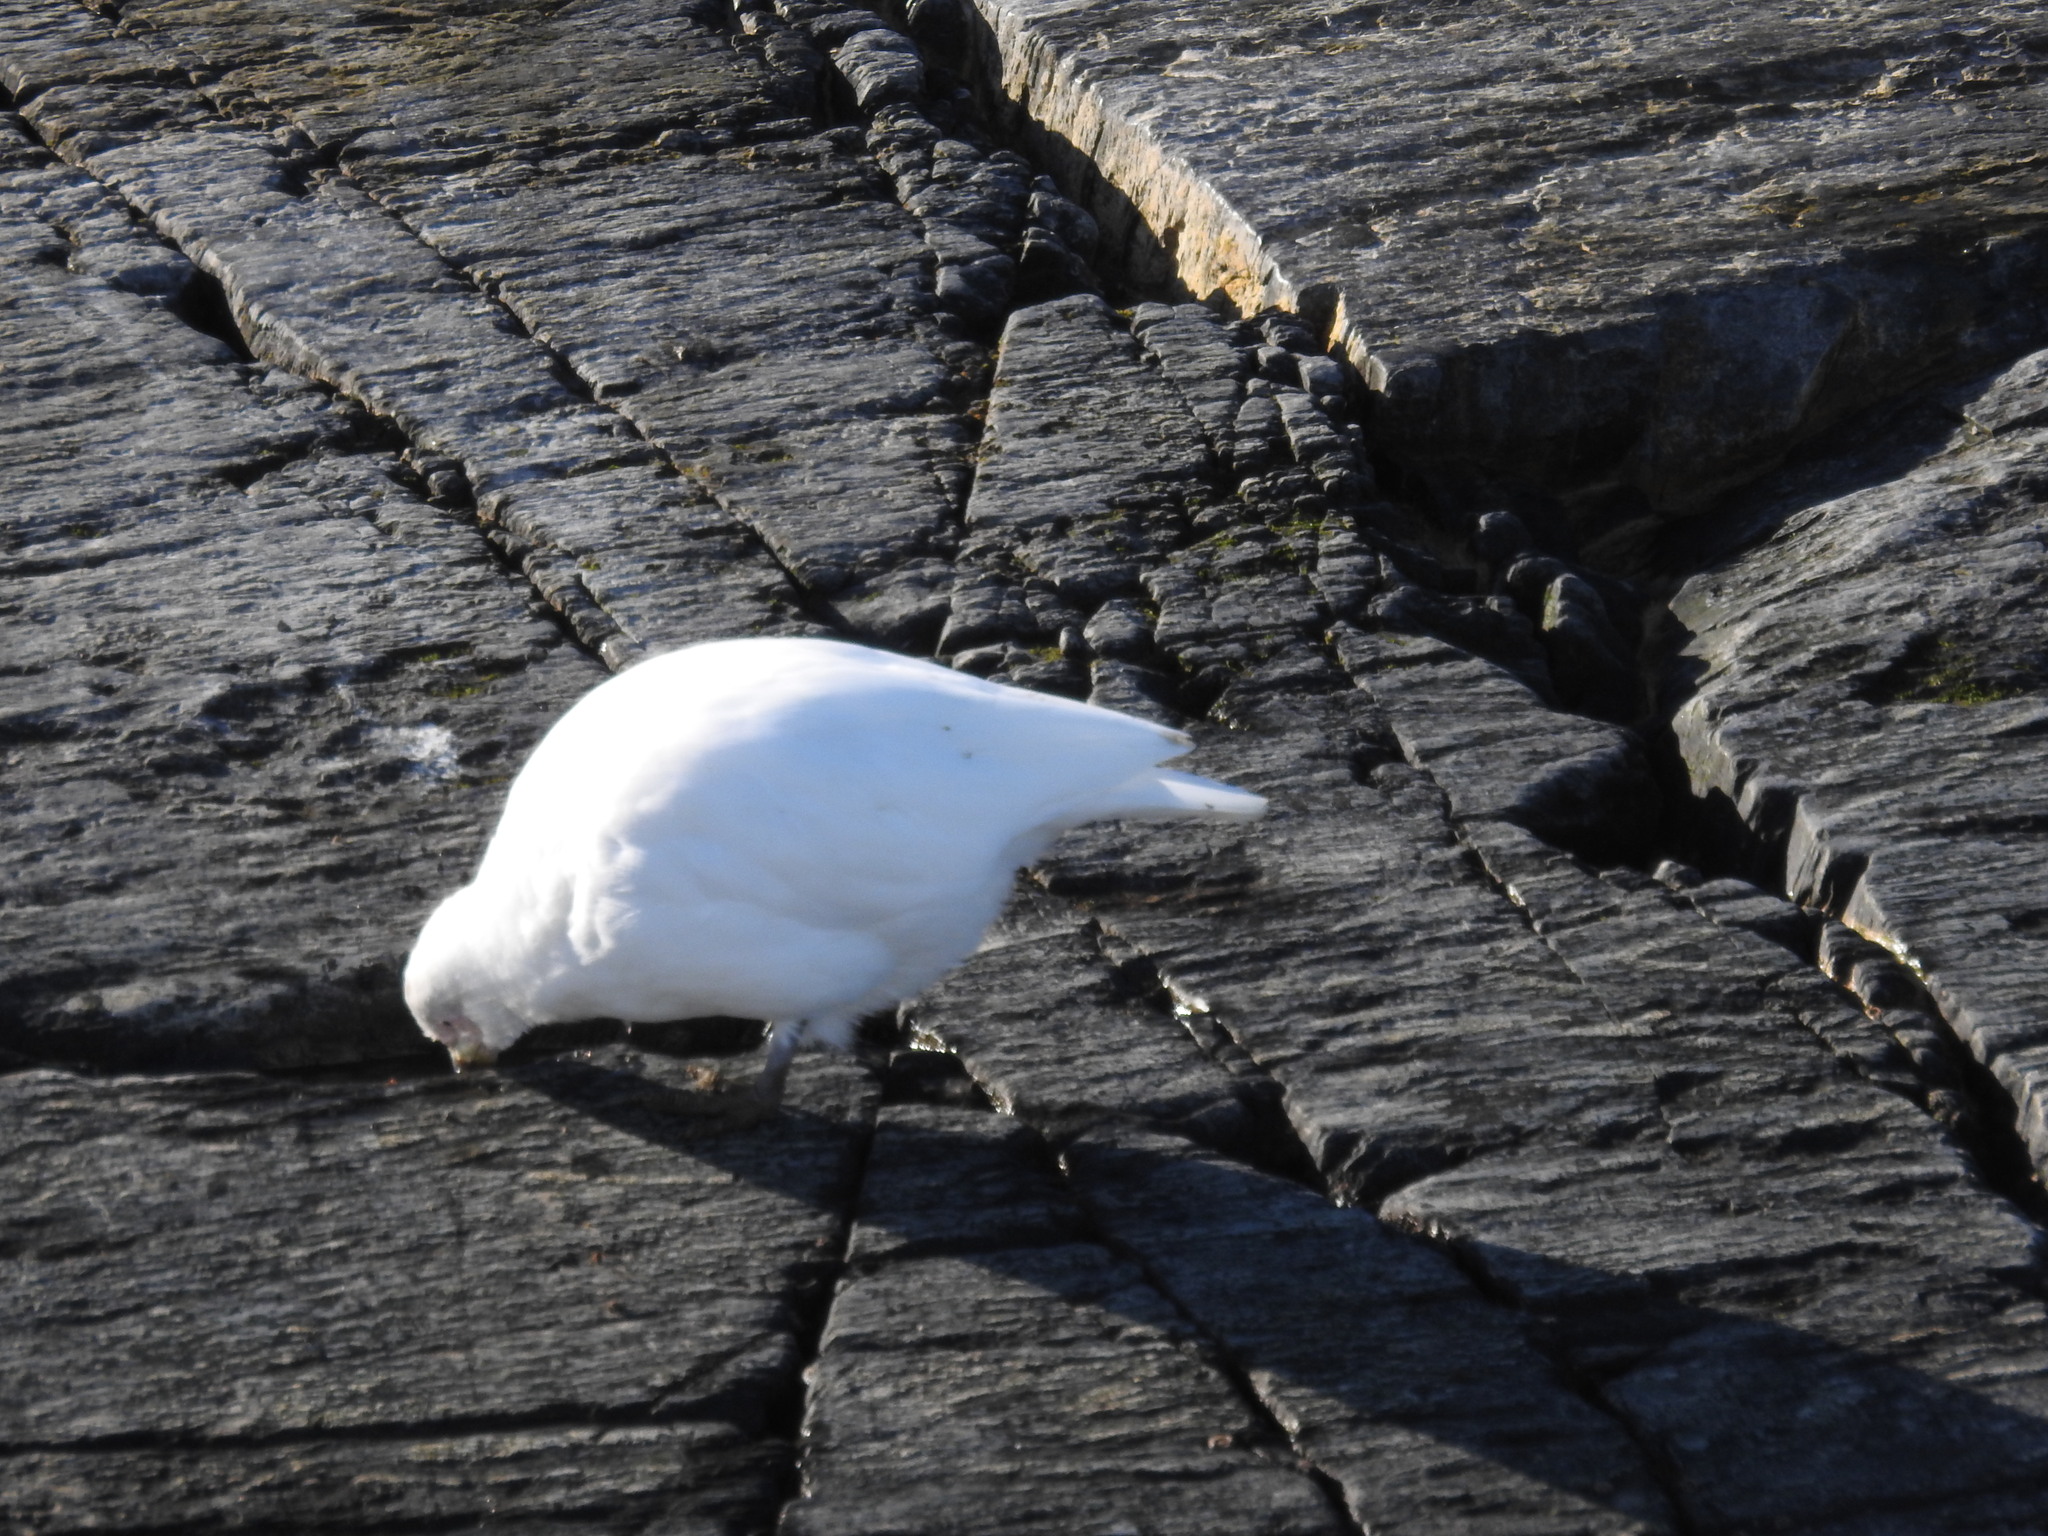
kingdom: Animalia
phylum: Chordata
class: Aves
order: Charadriiformes
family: Chionidae
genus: Chionis
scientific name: Chionis albus
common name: Snowy sheathbill
